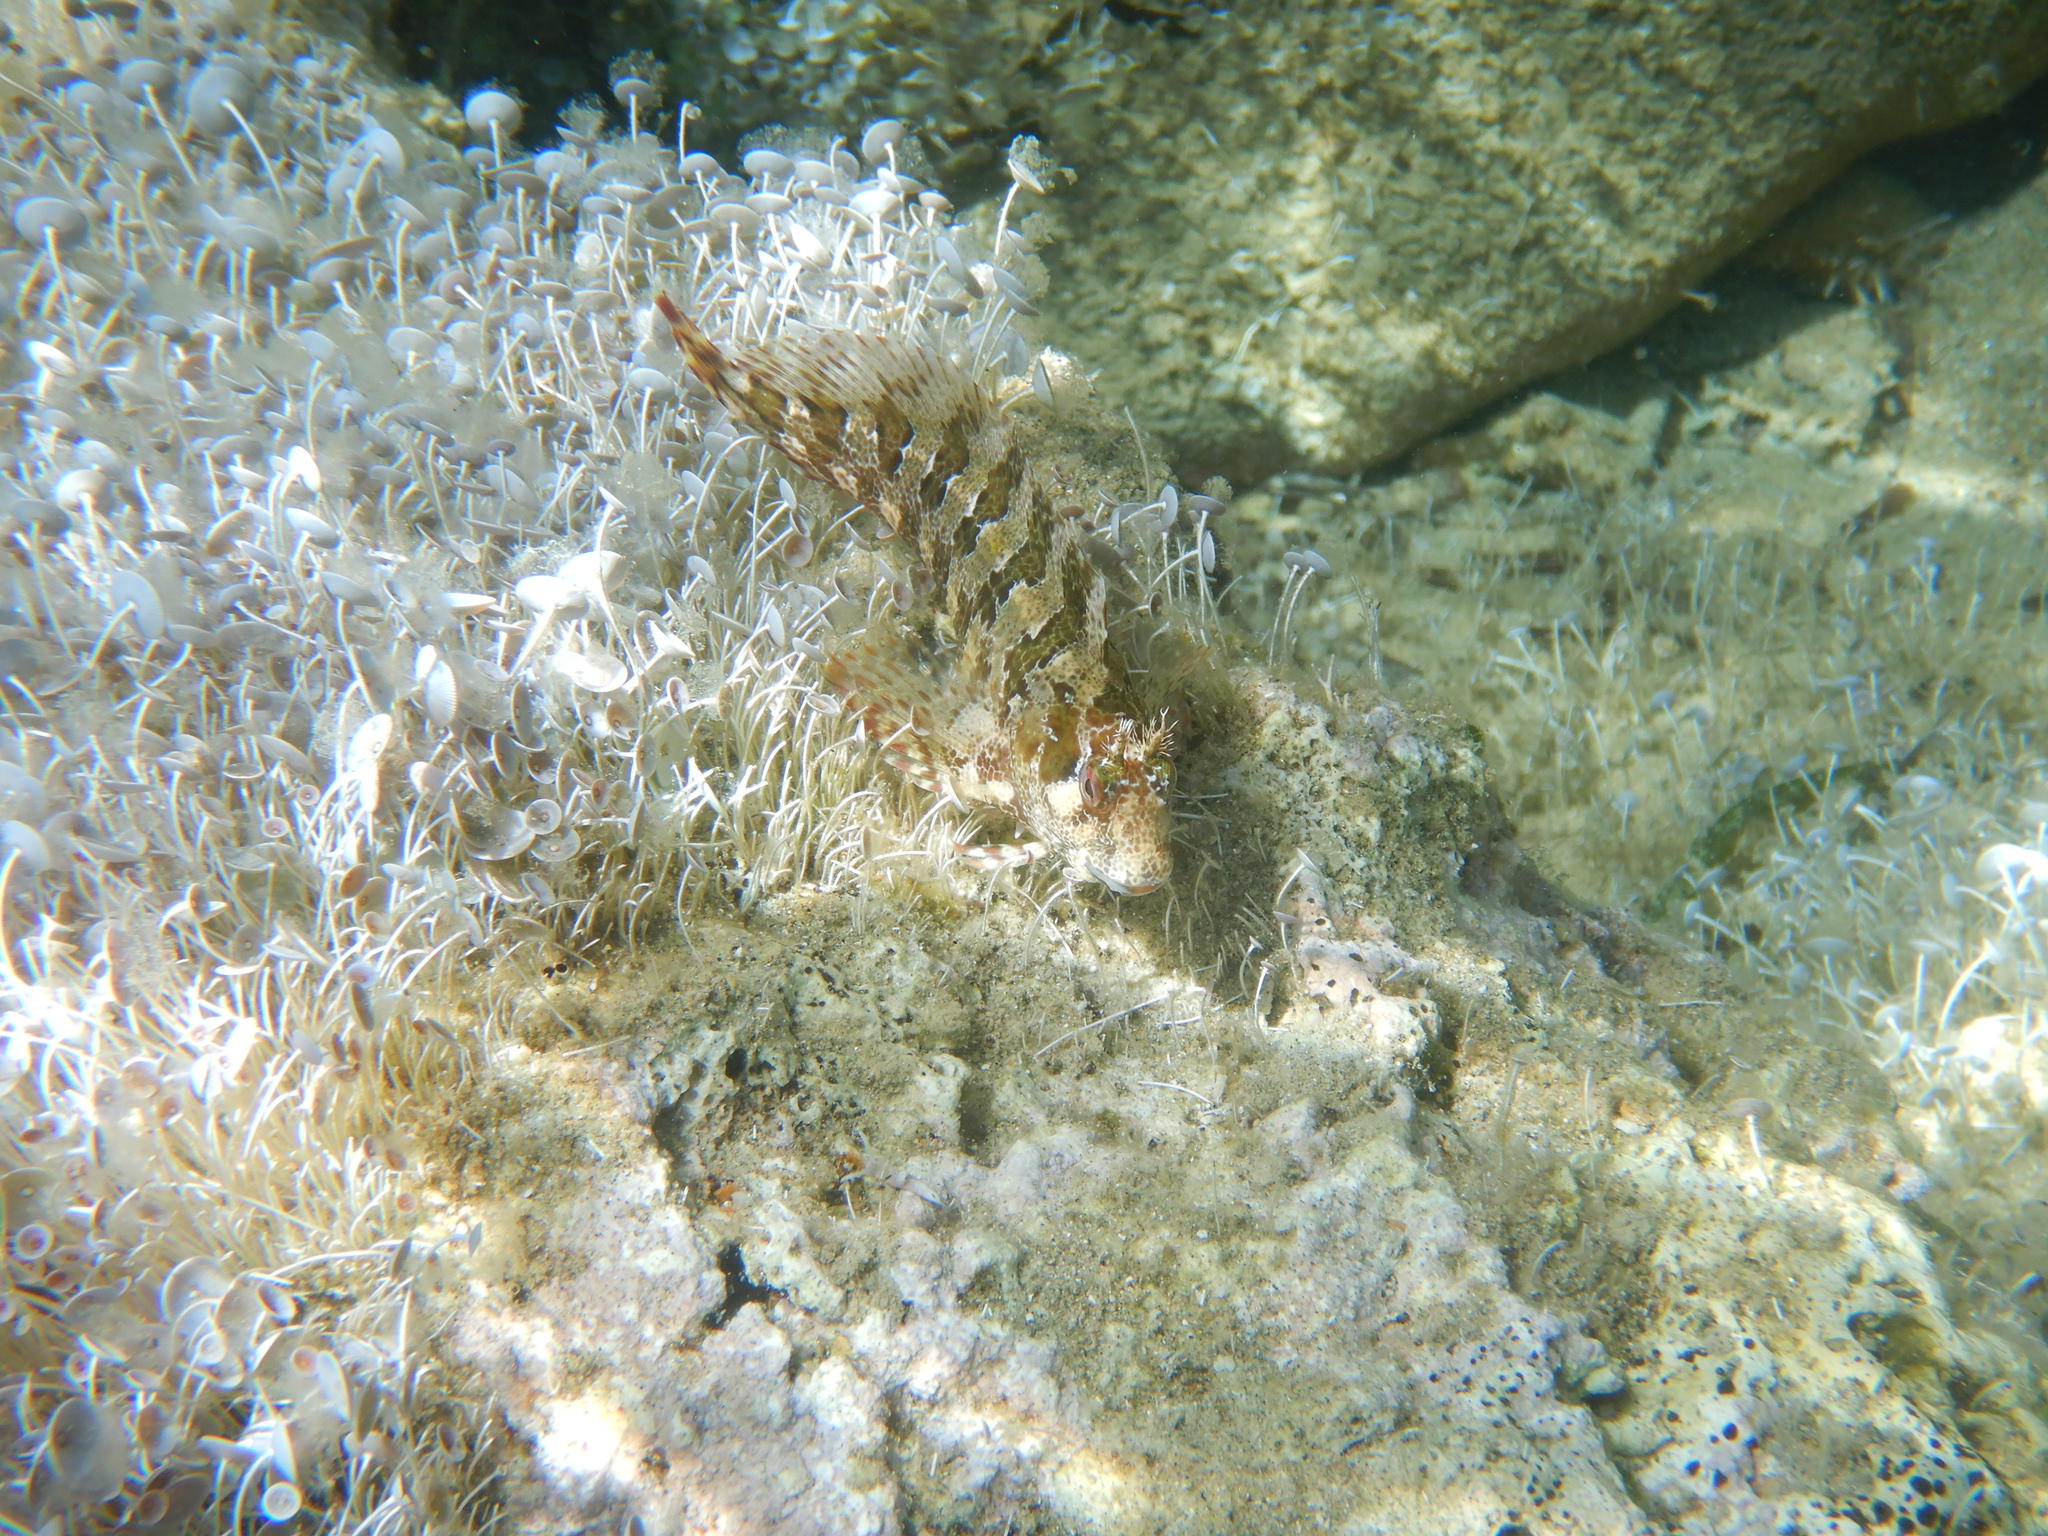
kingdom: Animalia
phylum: Chordata
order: Perciformes
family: Blenniidae
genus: Parablennius
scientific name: Parablennius gattorugine
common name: Tompot blenny
